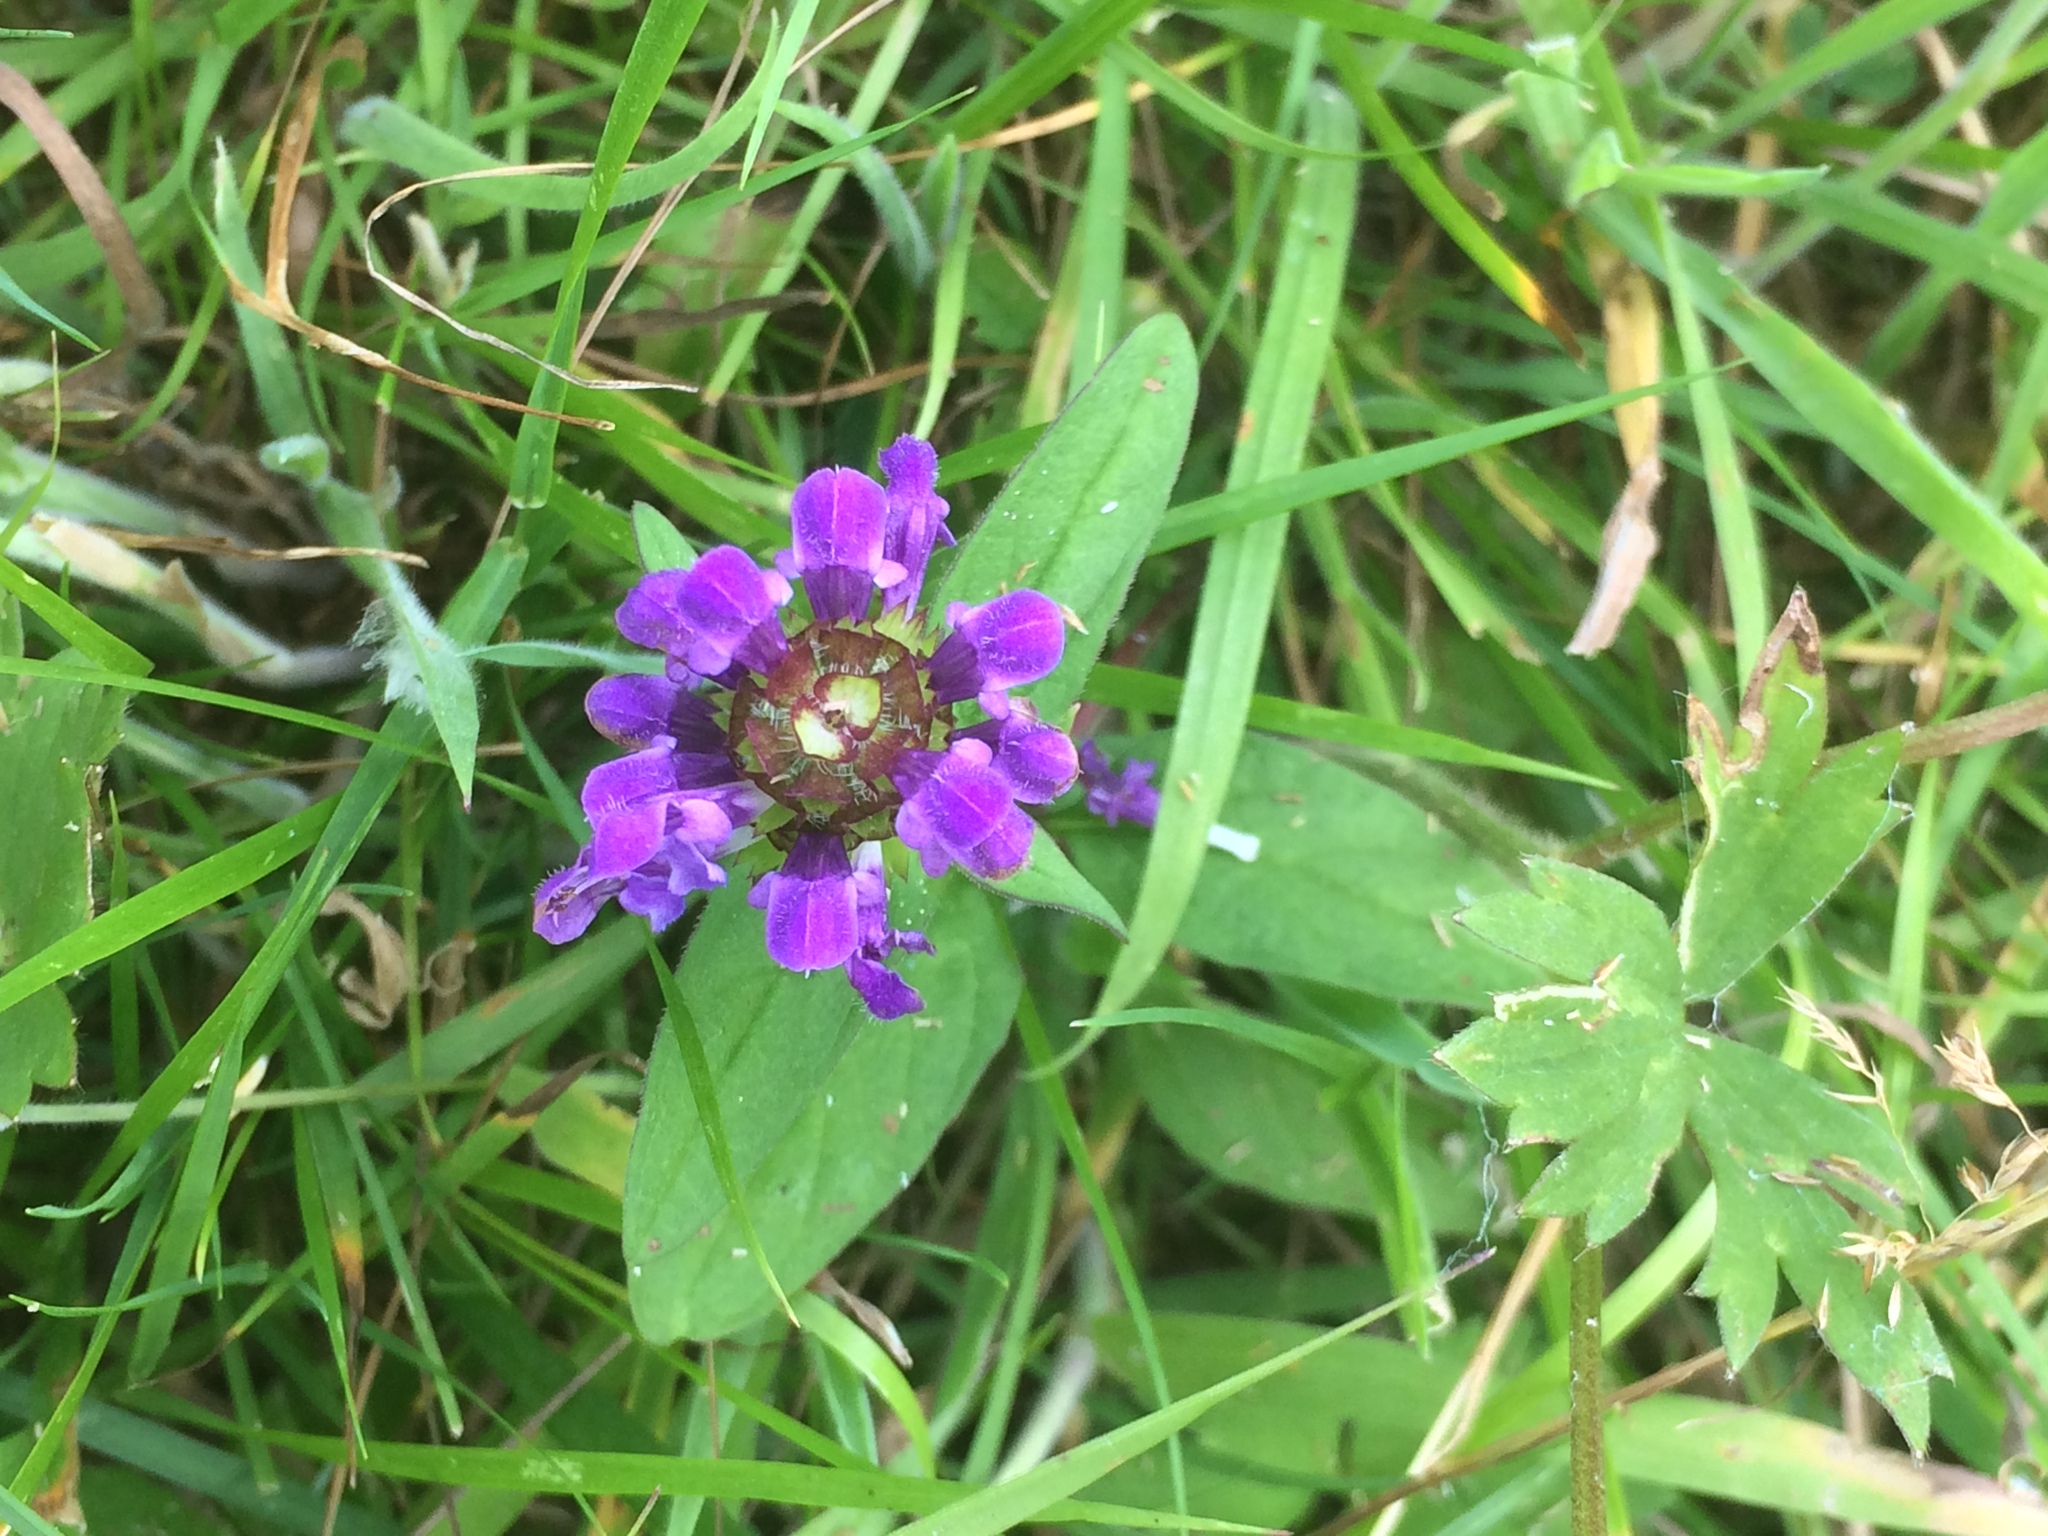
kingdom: Plantae
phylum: Tracheophyta
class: Magnoliopsida
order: Lamiales
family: Lamiaceae
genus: Prunella
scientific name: Prunella vulgaris
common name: Heal-all
